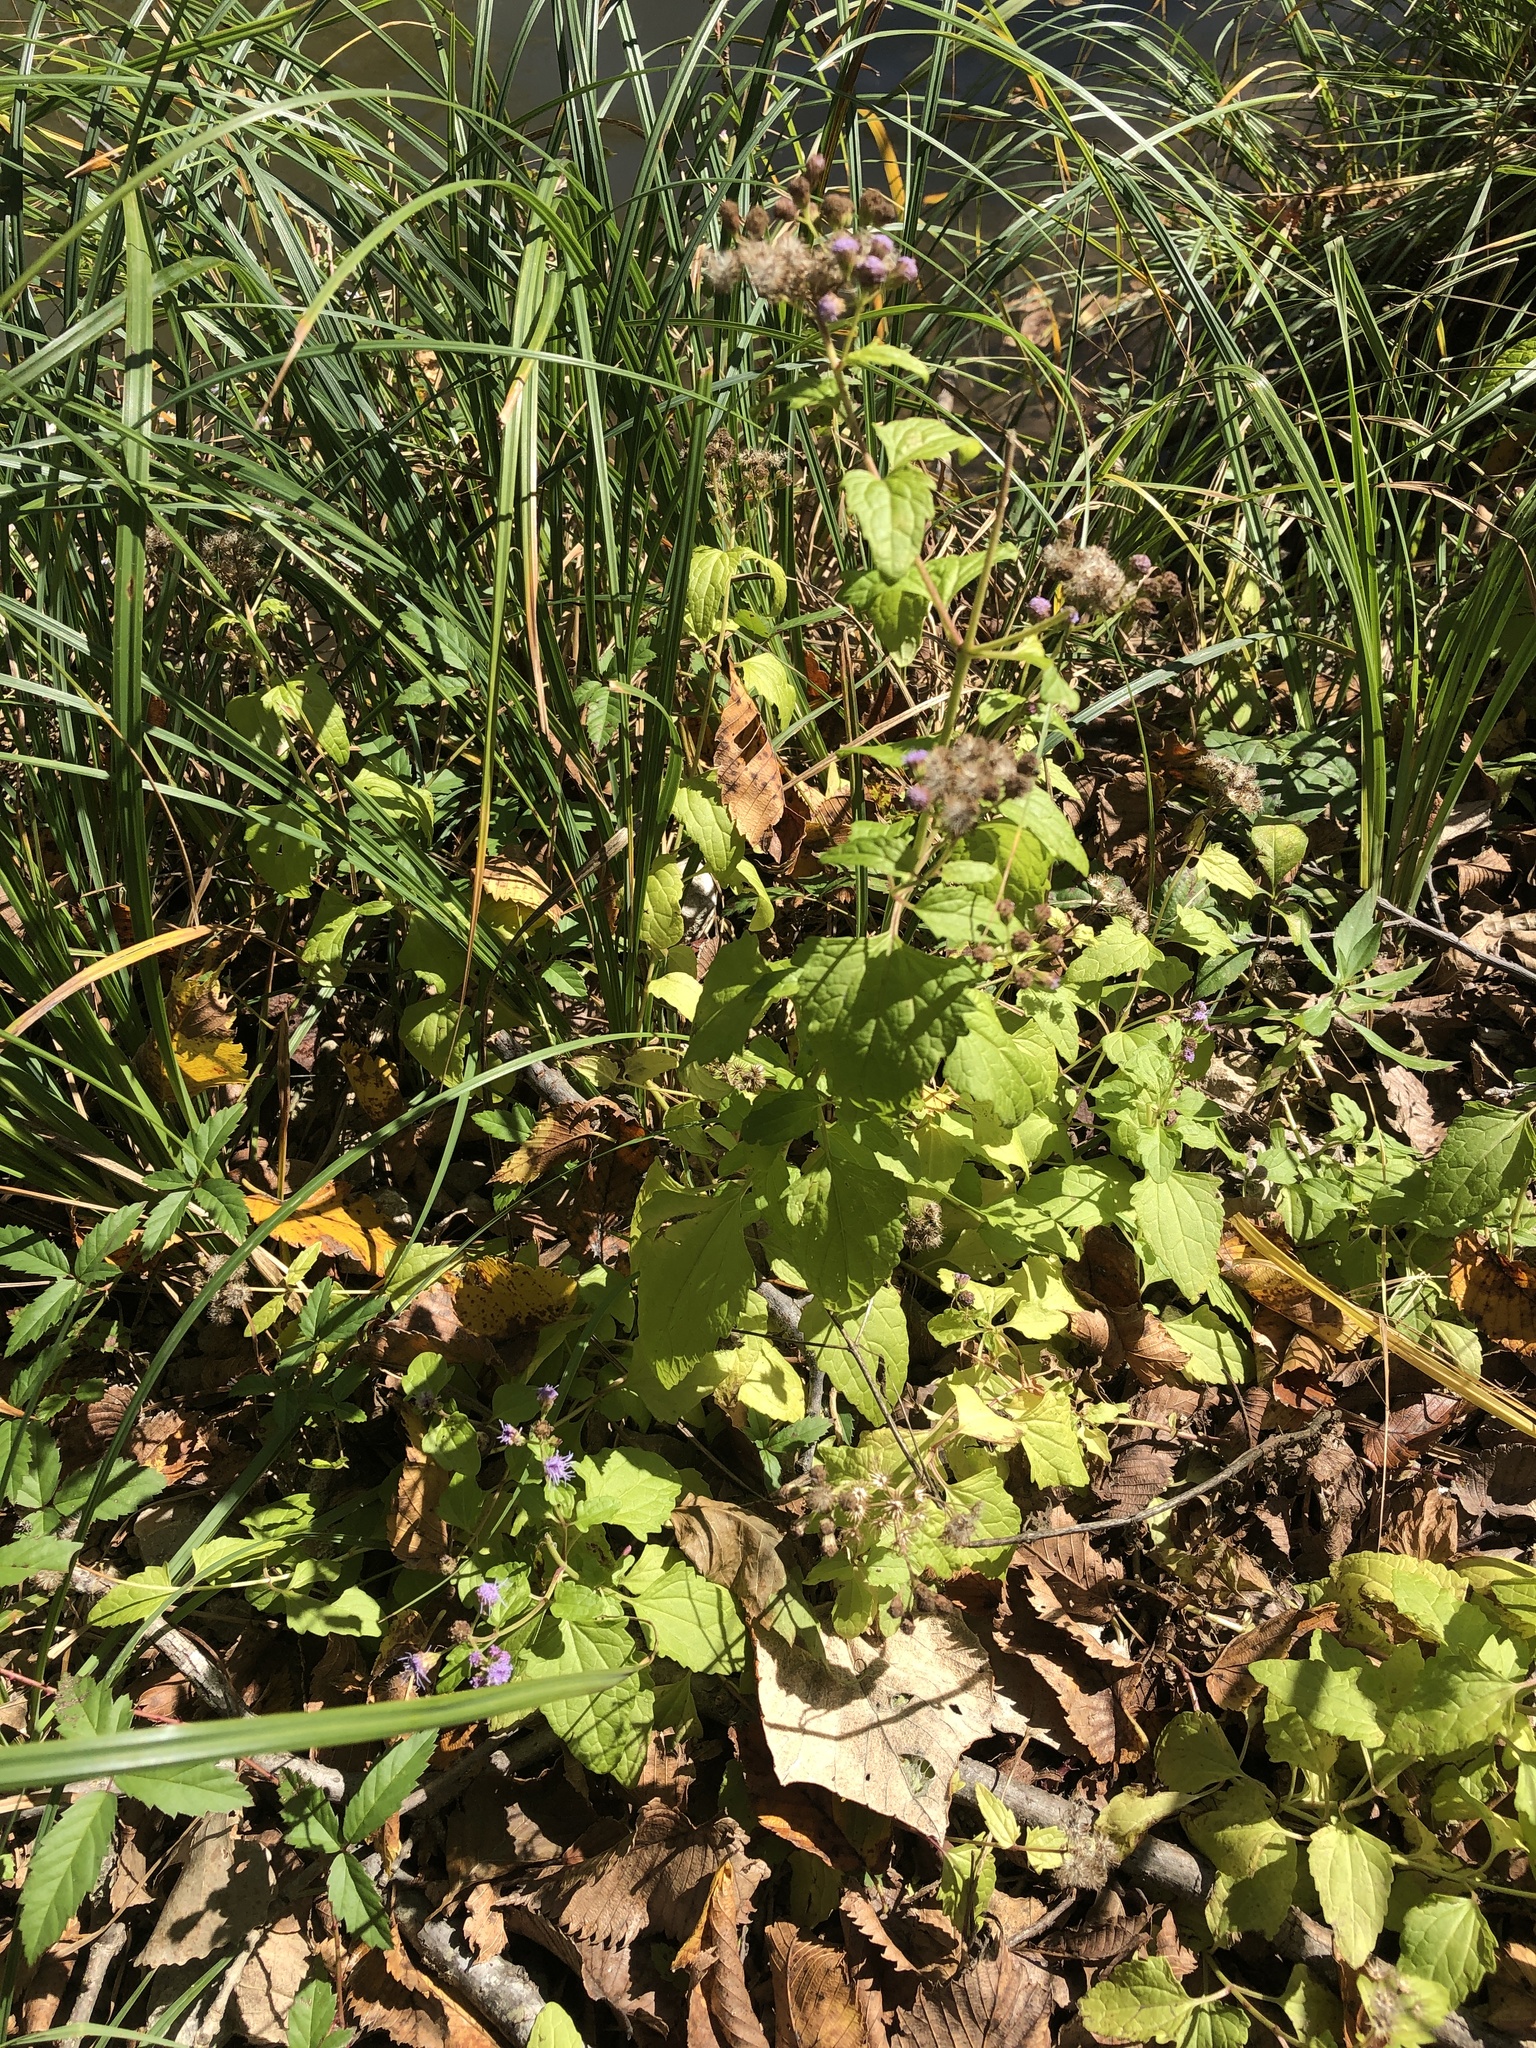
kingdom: Plantae
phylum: Tracheophyta
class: Magnoliopsida
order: Asterales
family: Asteraceae
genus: Conoclinium
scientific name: Conoclinium coelestinum
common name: Blue mistflower
